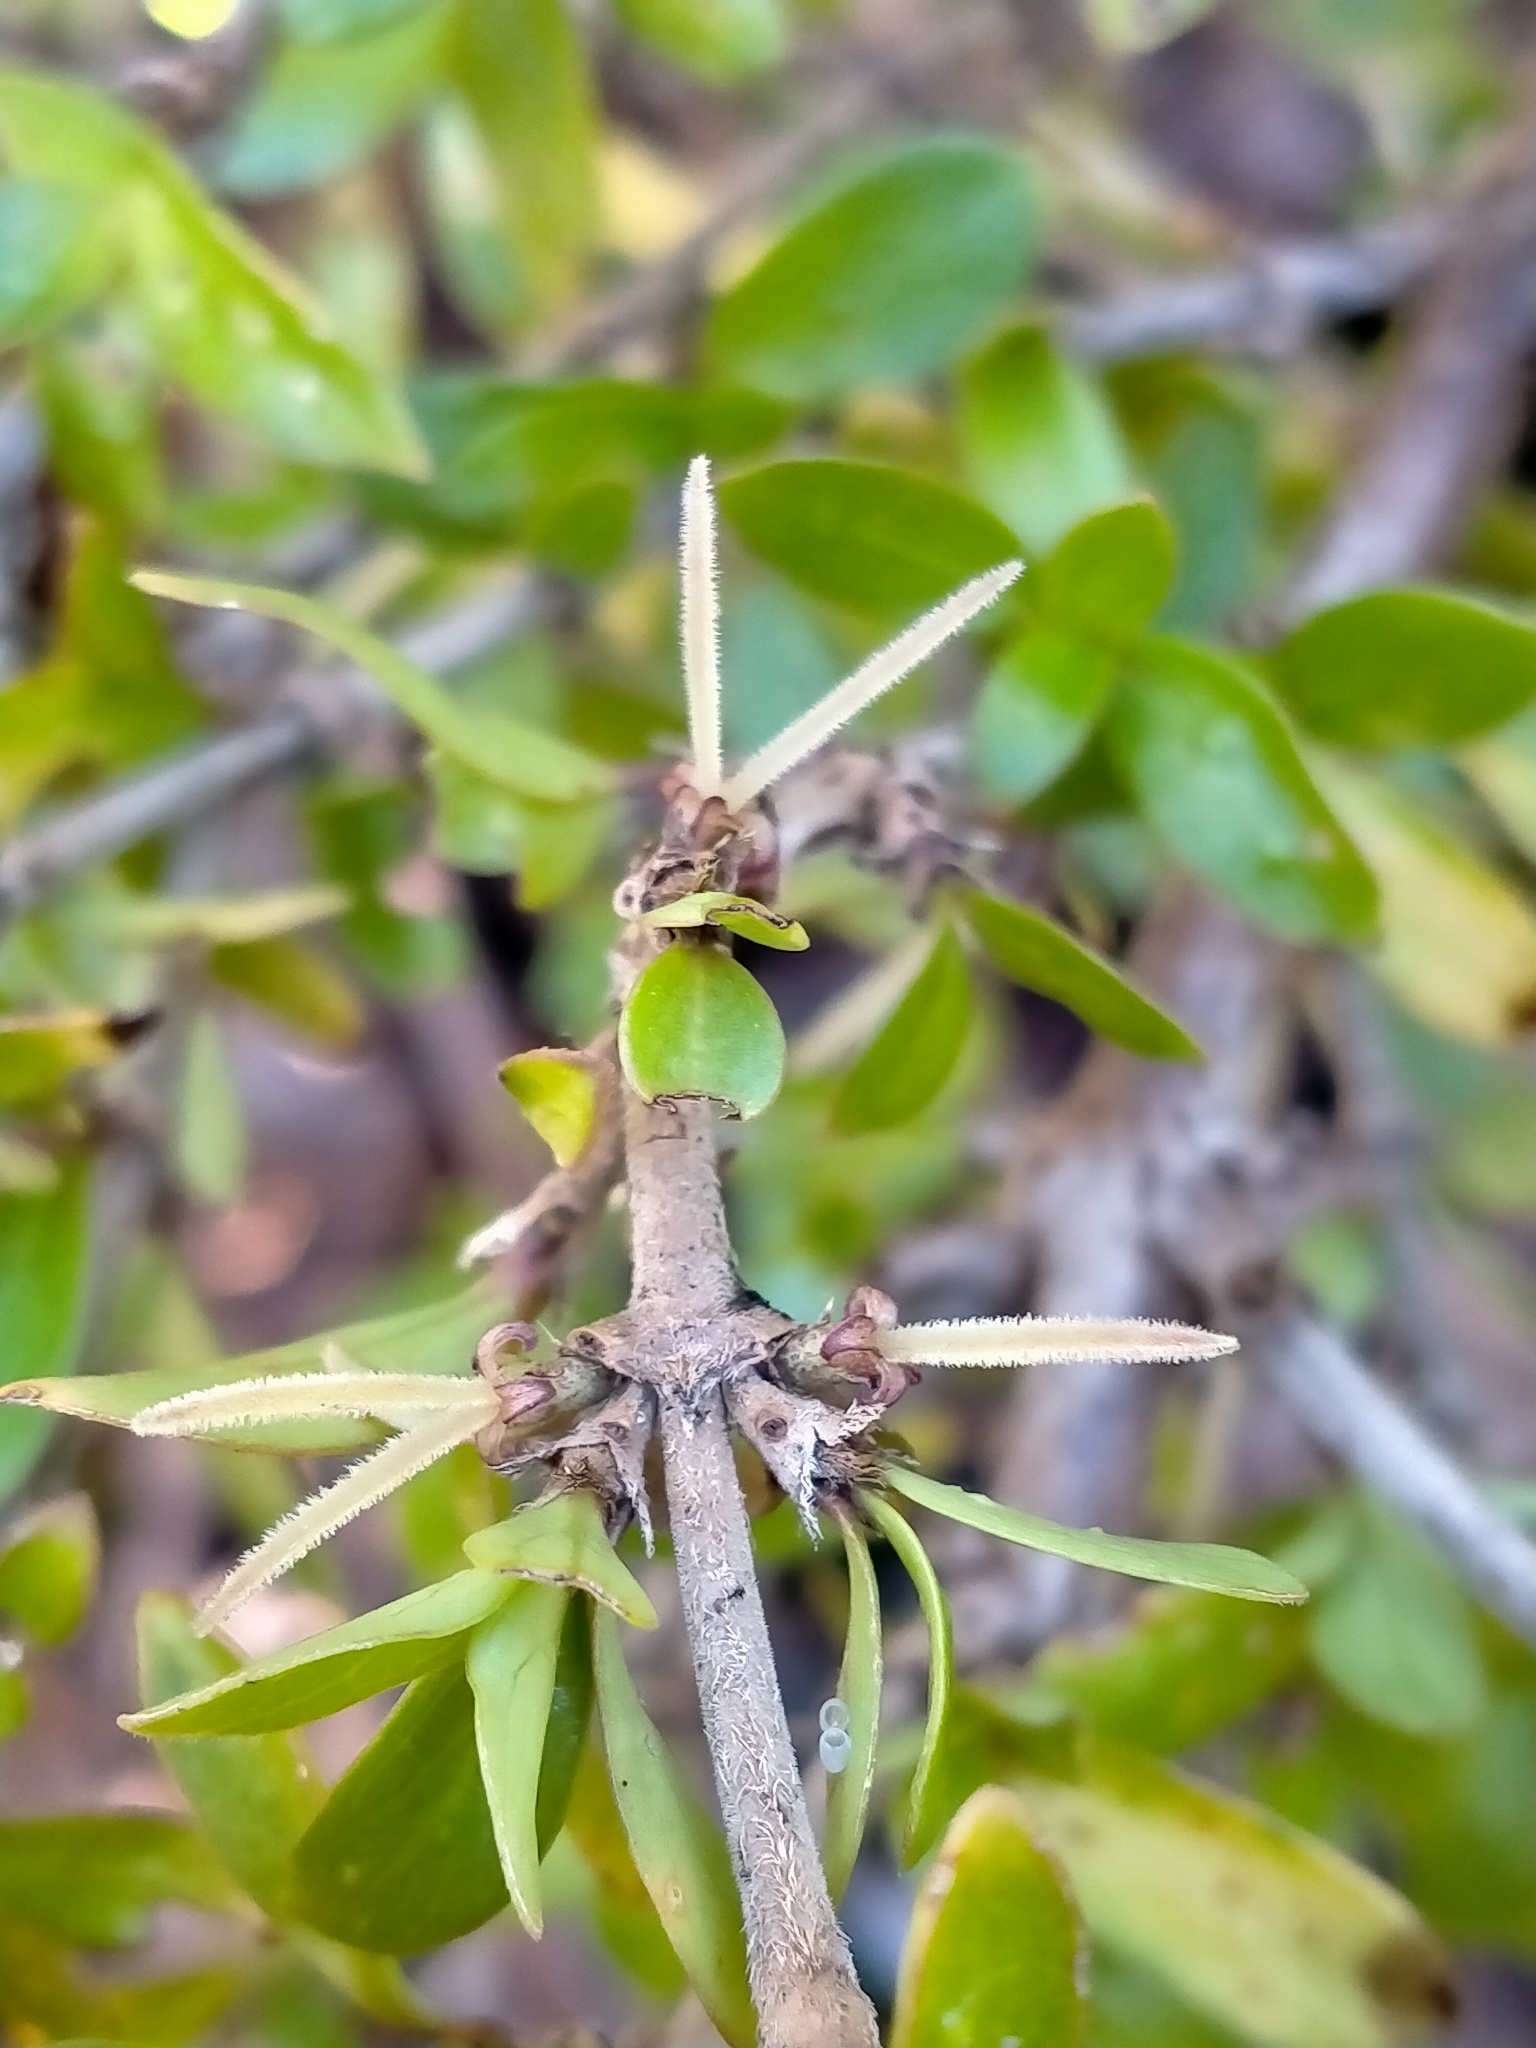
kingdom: Plantae
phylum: Tracheophyta
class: Magnoliopsida
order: Gentianales
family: Rubiaceae
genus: Coprosma
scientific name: Coprosma propinqua
